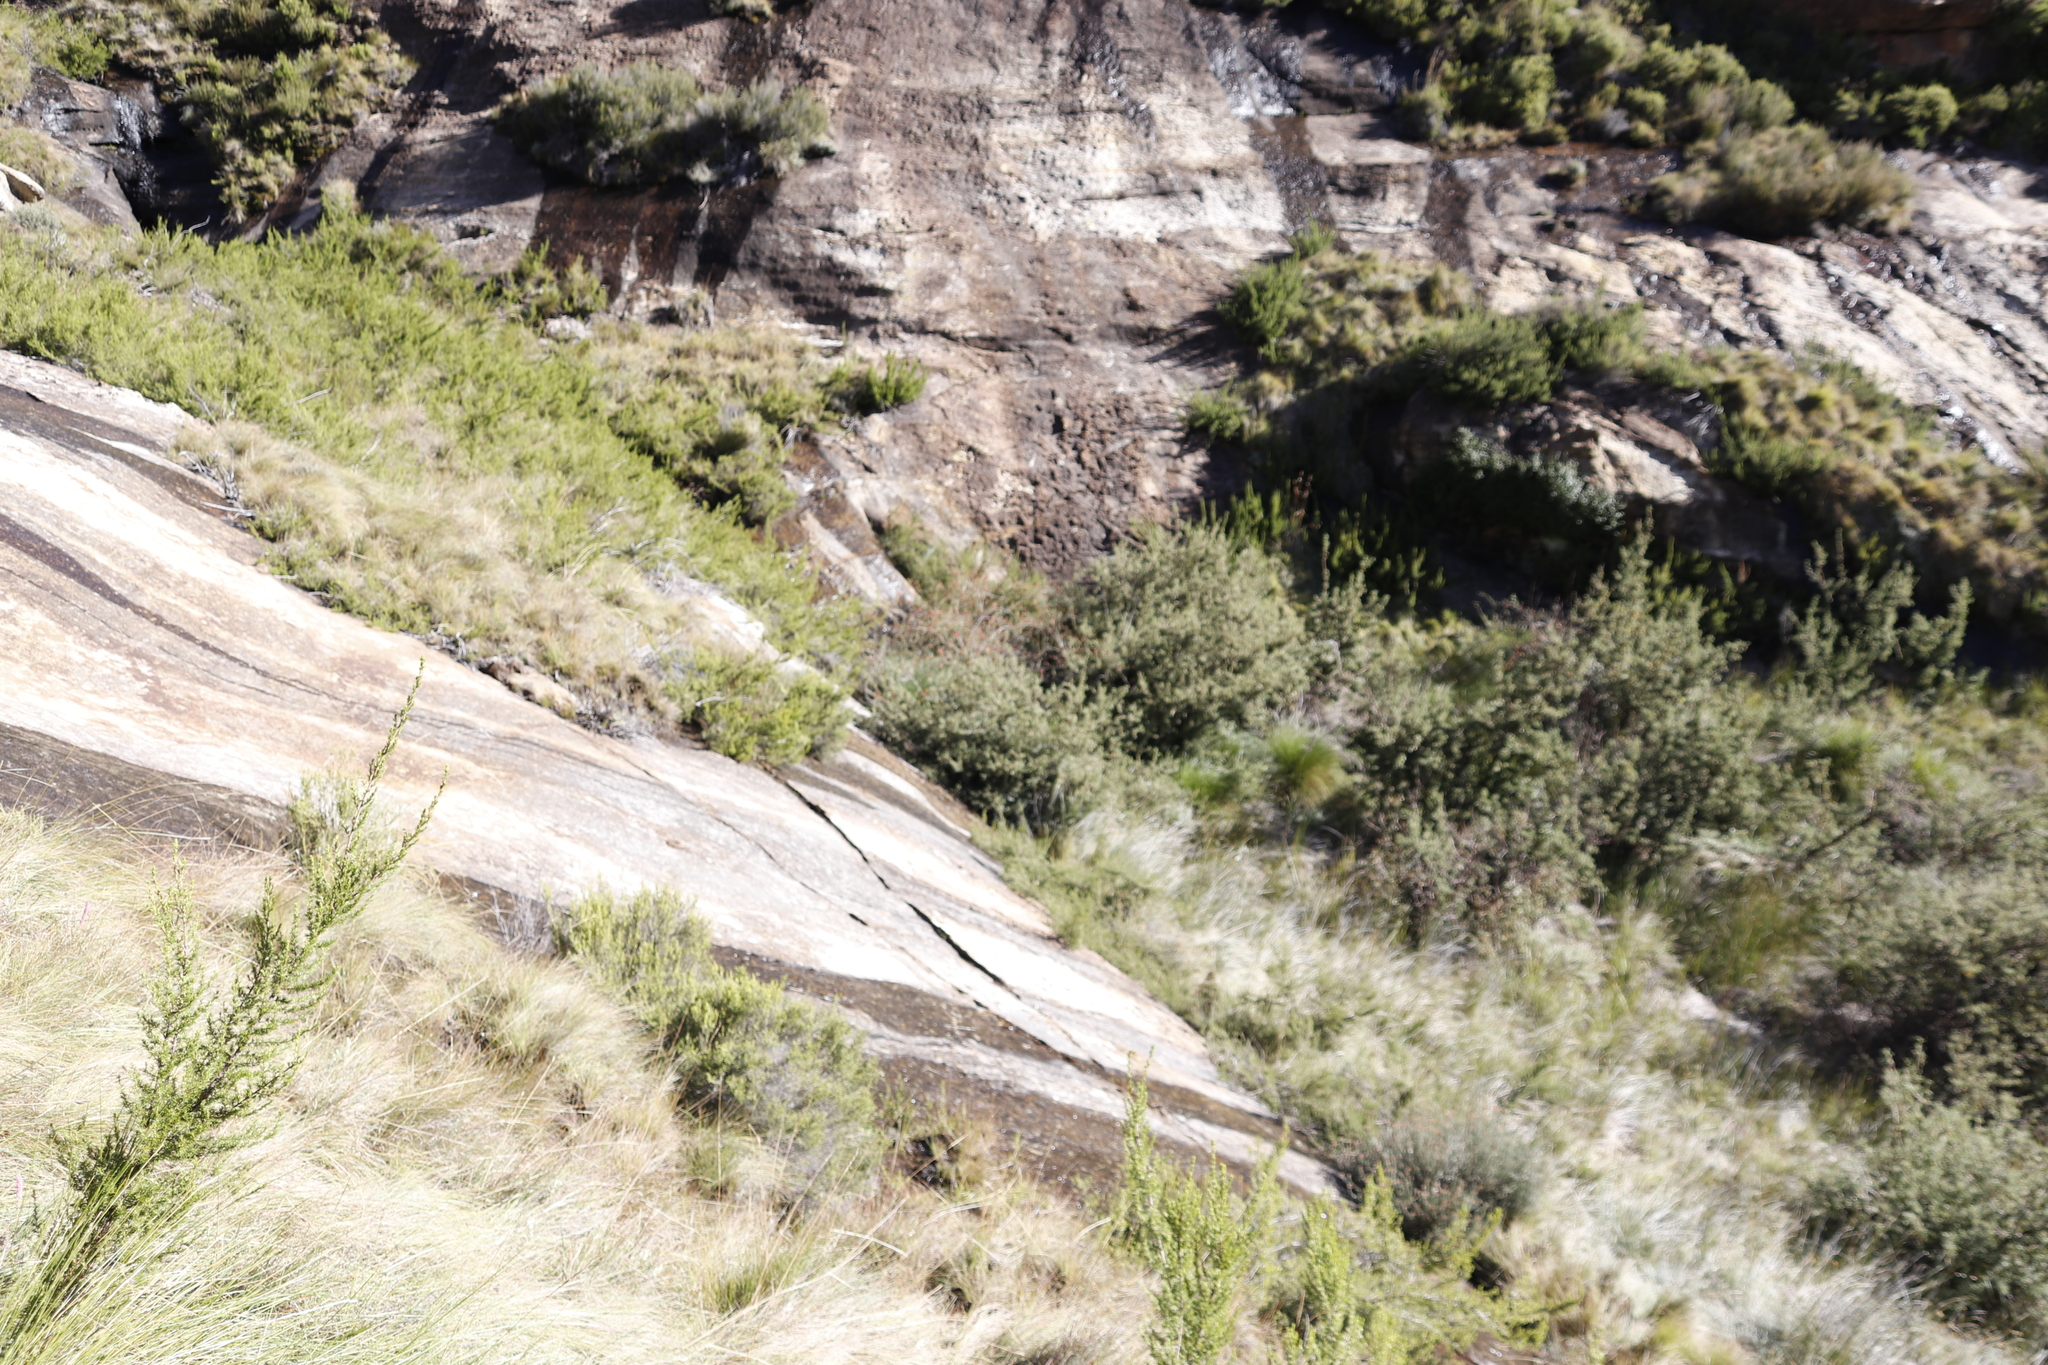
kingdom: Plantae
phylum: Tracheophyta
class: Magnoliopsida
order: Rosales
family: Rosaceae
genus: Leucosidea
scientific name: Leucosidea sericea
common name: Oldwood
